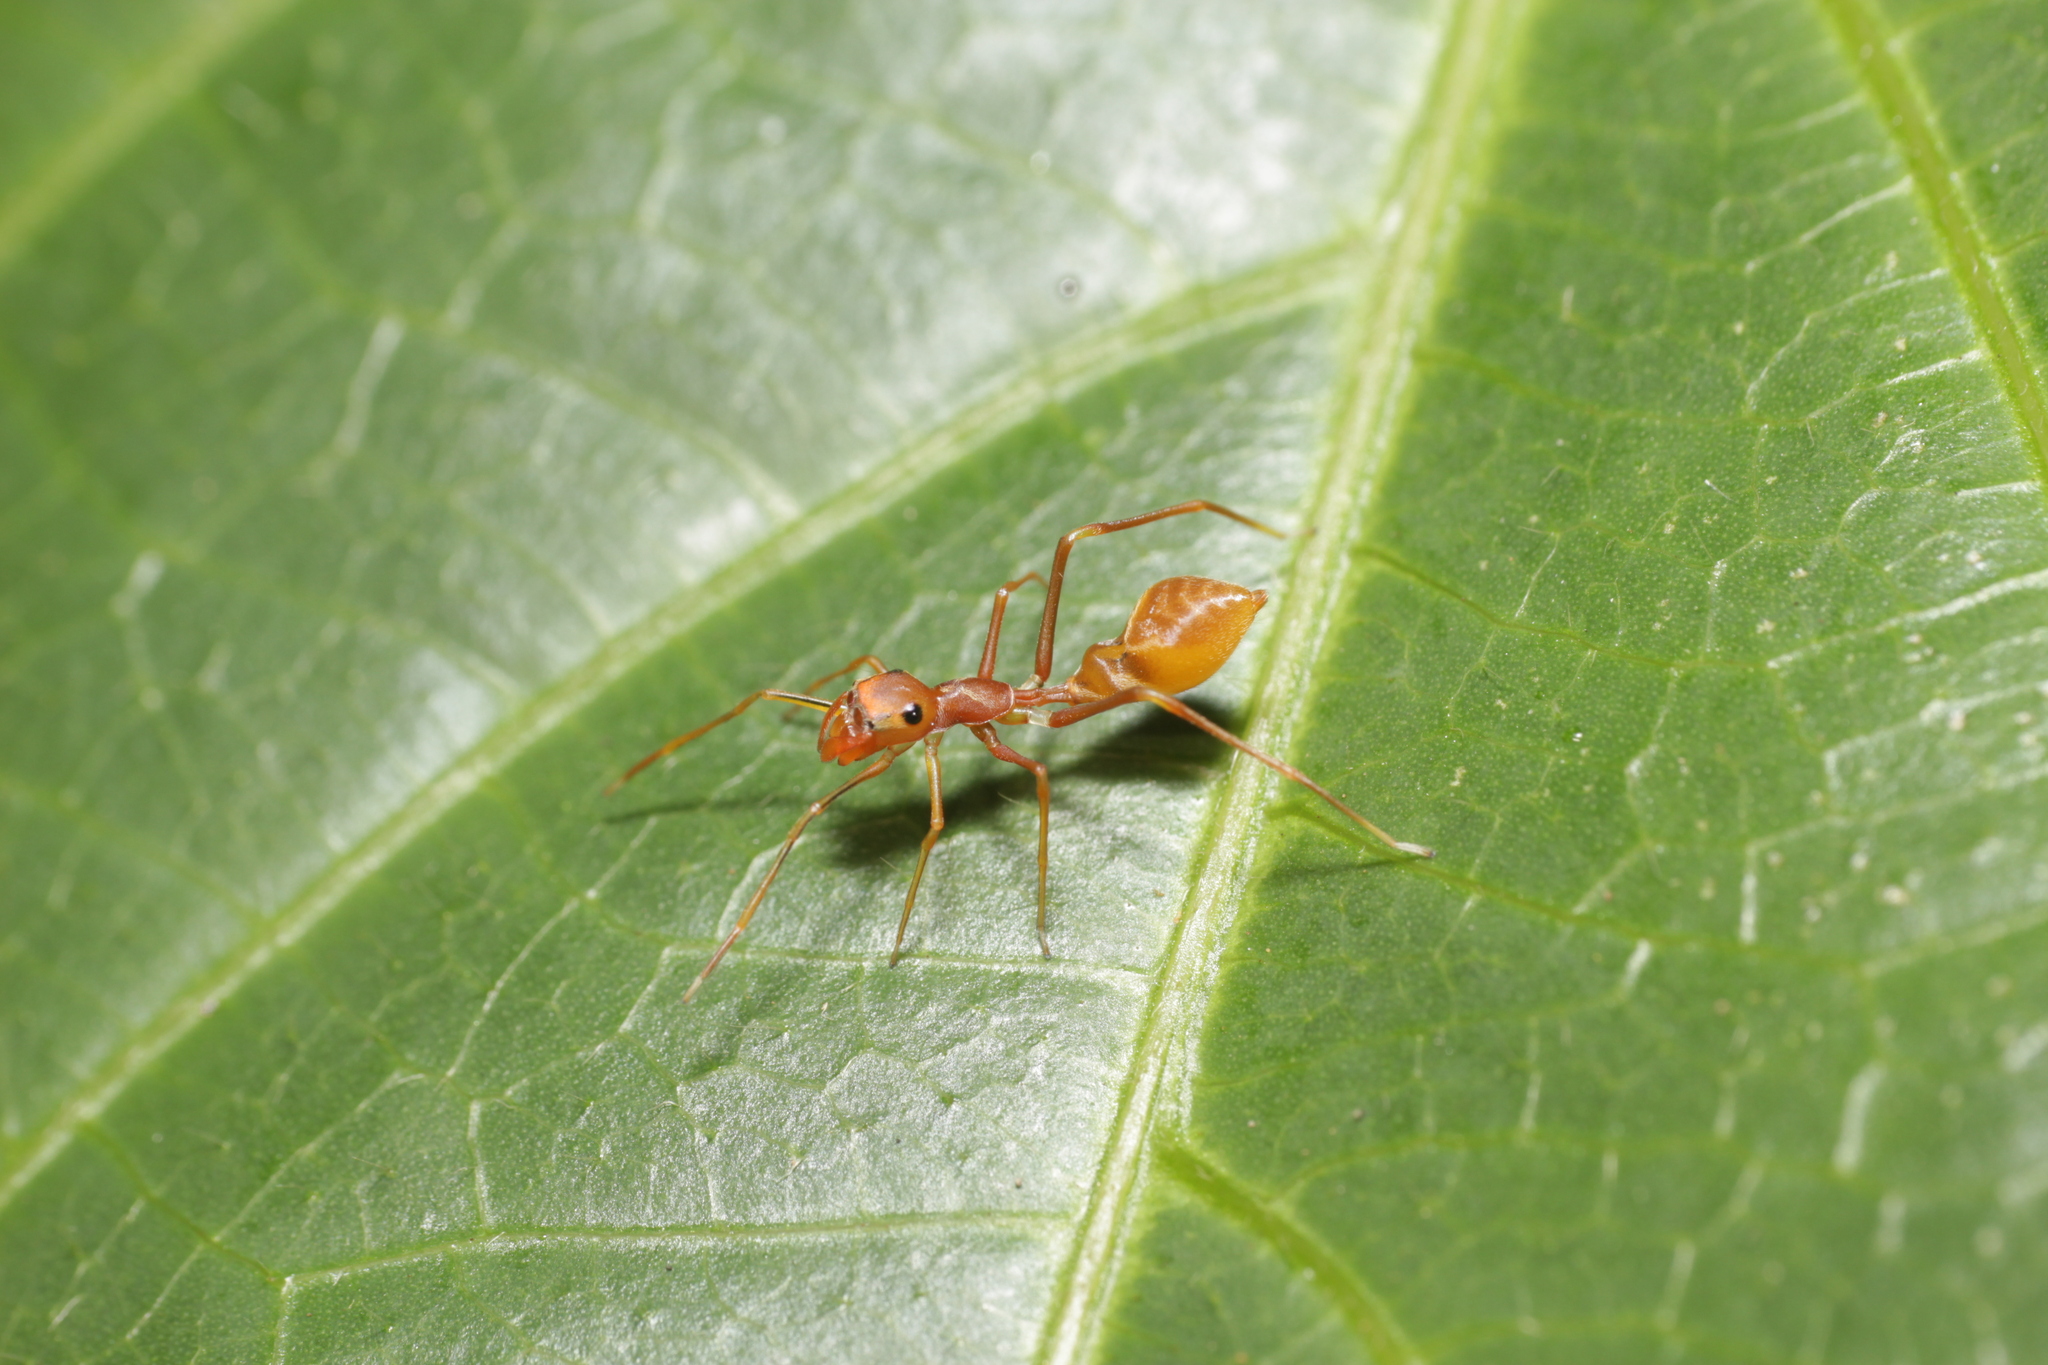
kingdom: Animalia
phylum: Arthropoda
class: Arachnida
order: Araneae
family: Salticidae
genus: Myrmaplata
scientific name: Myrmaplata plataleoides
